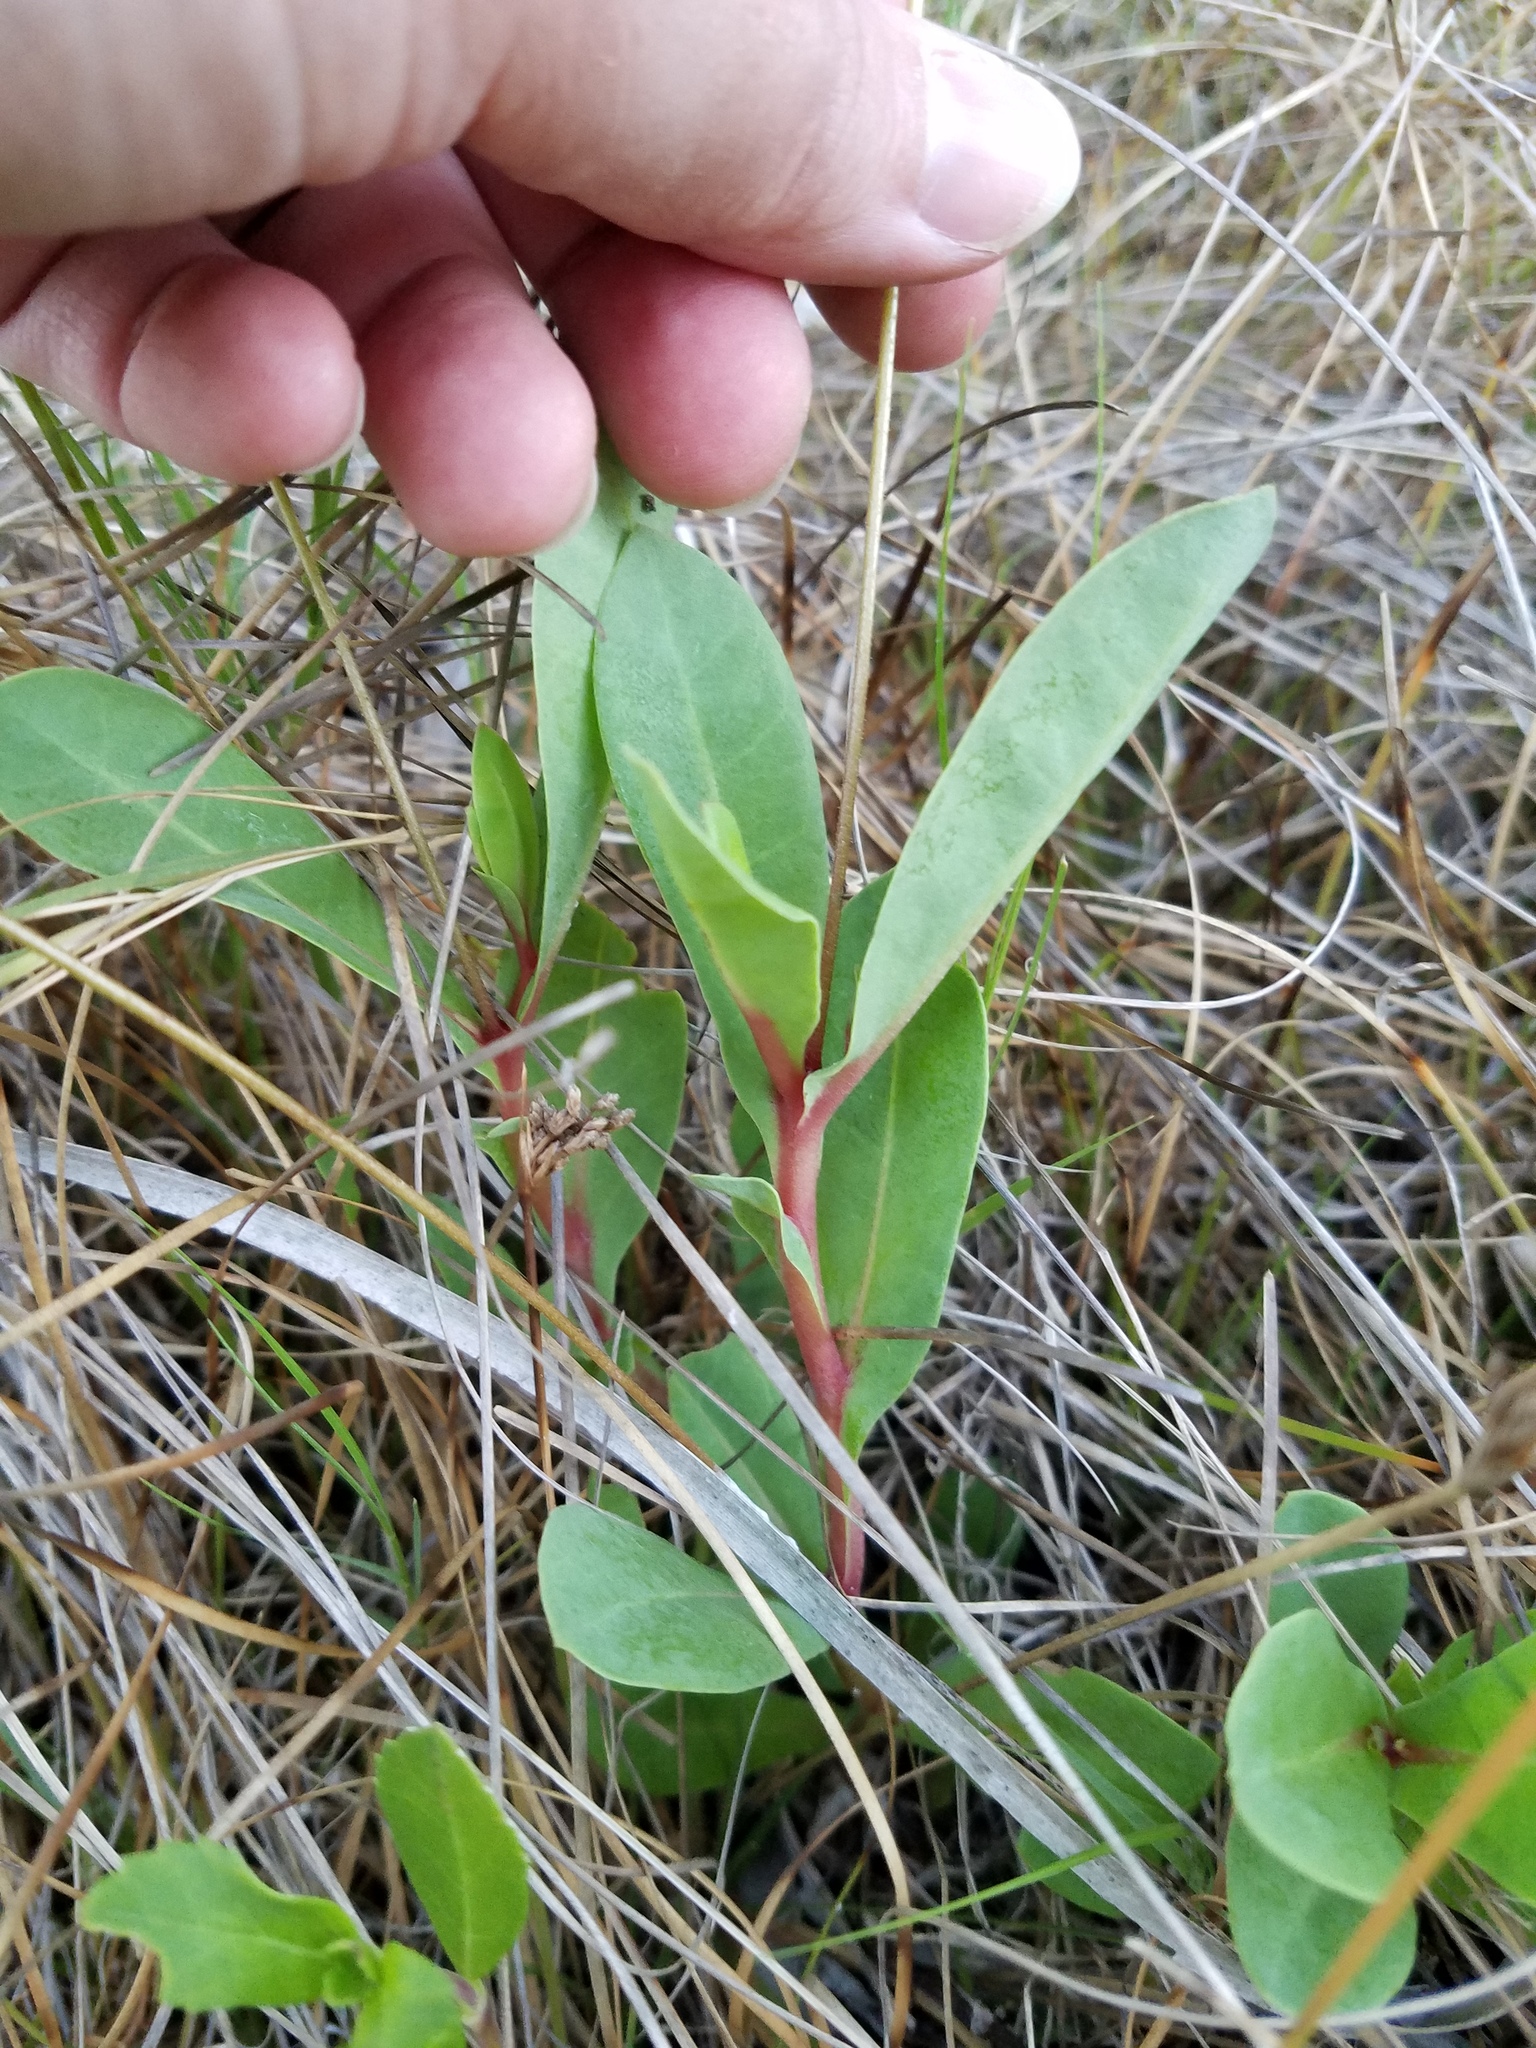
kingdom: Plantae
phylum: Tracheophyta
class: Magnoliopsida
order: Ericales
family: Primulaceae
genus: Samolus
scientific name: Samolus ebracteatus
